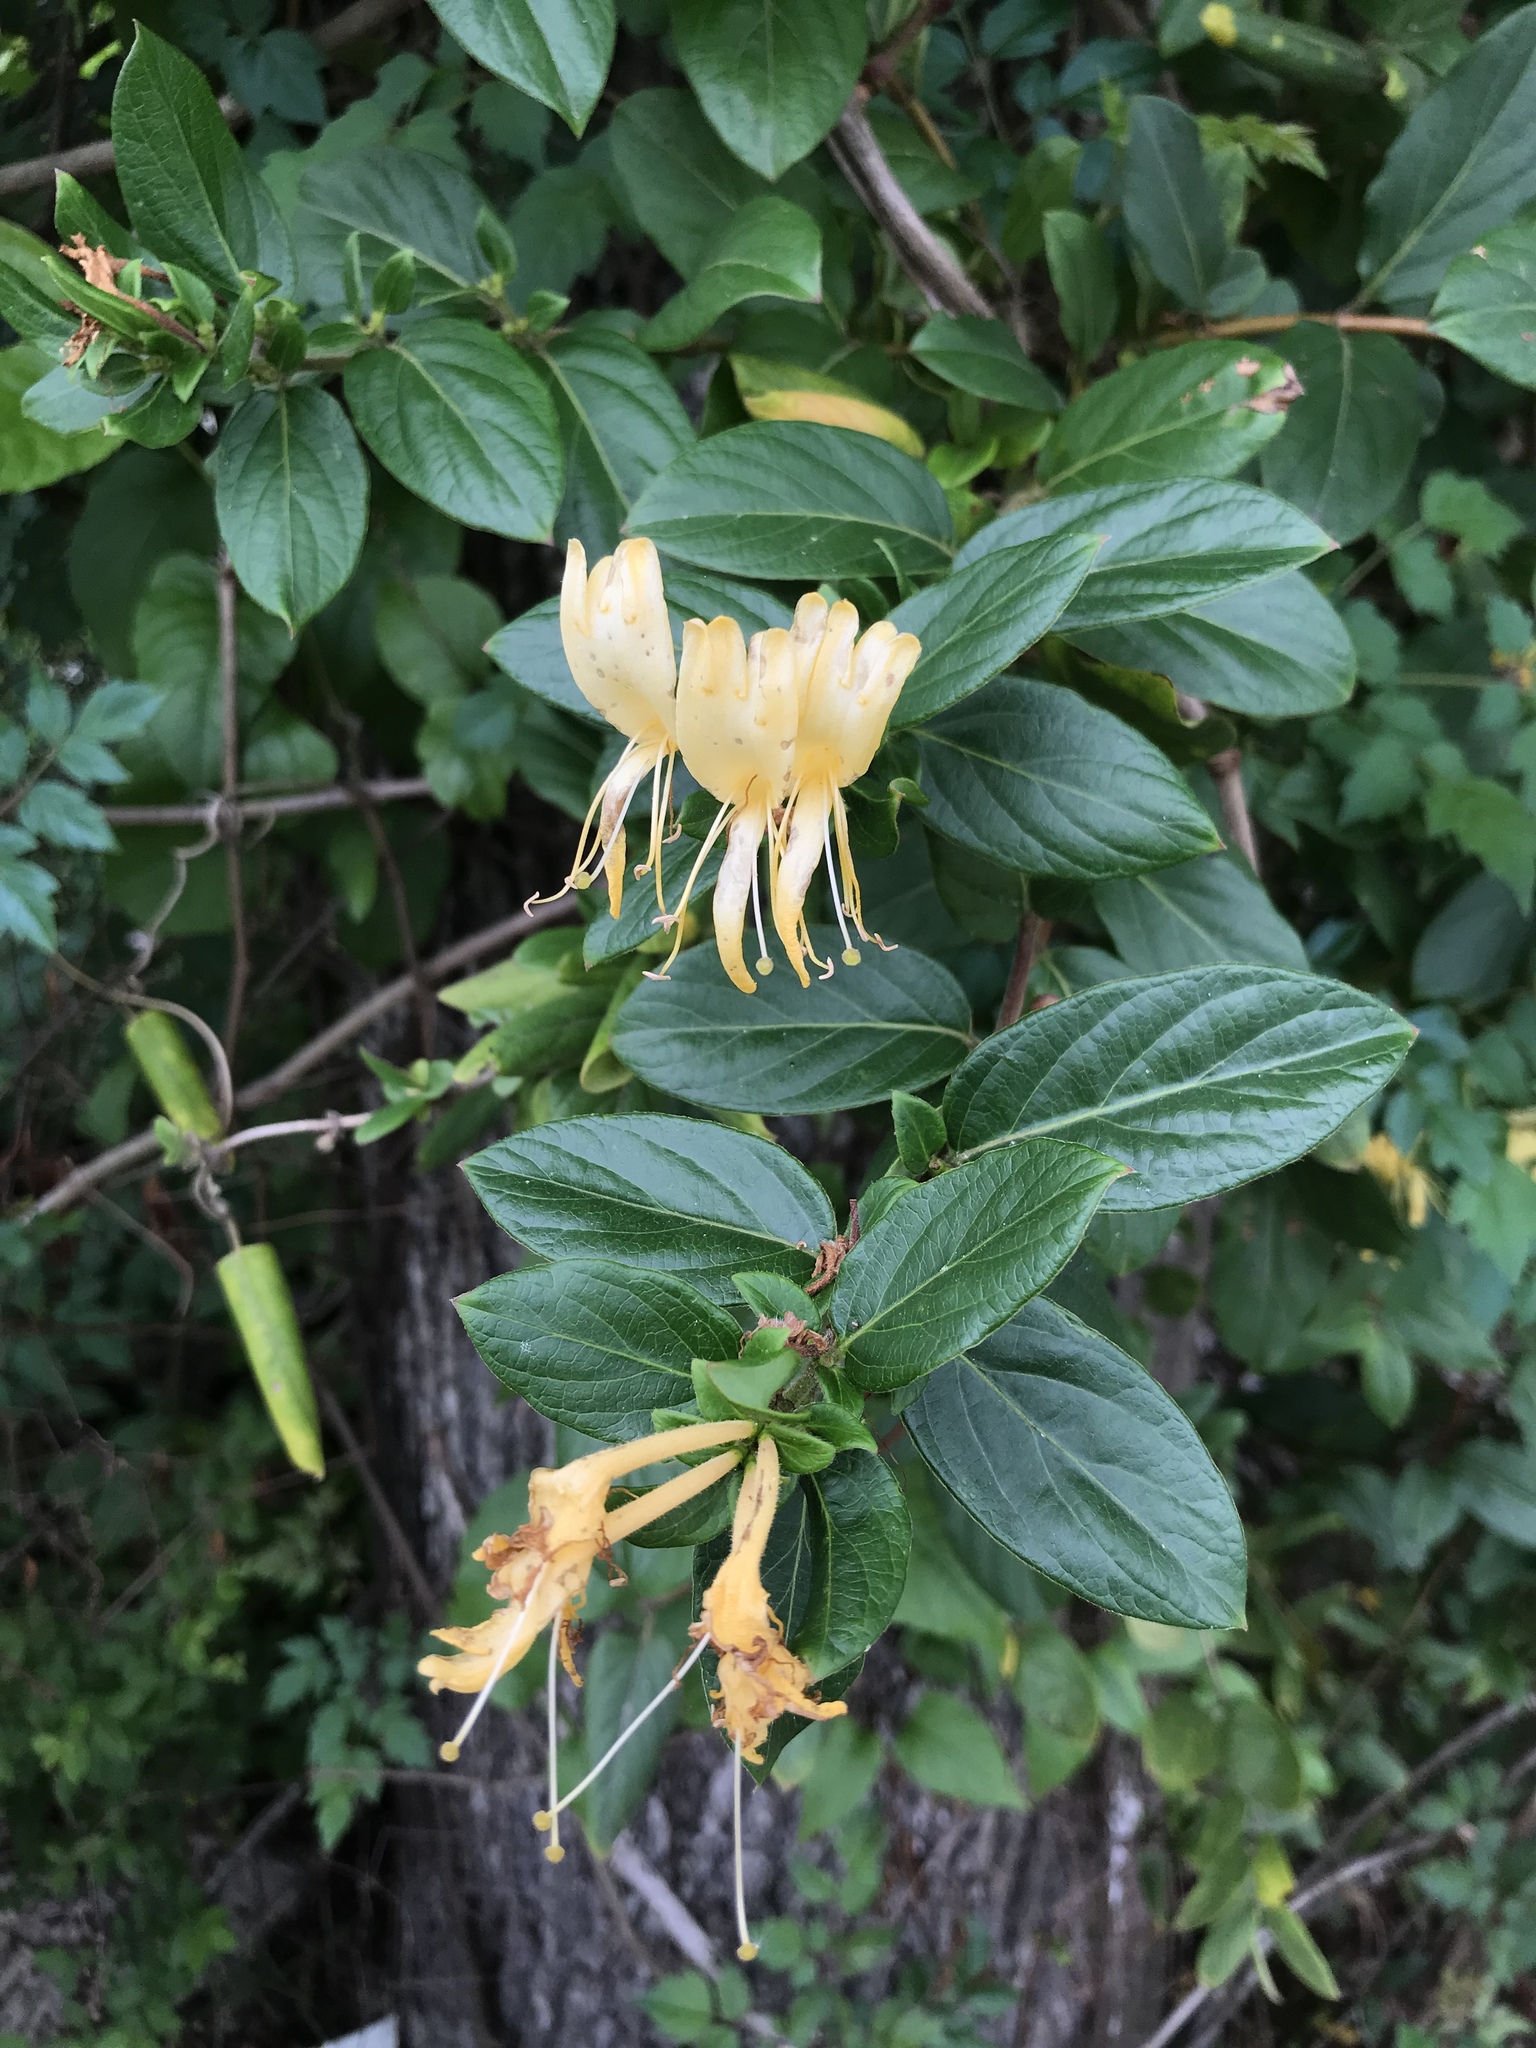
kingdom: Plantae
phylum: Tracheophyta
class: Magnoliopsida
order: Dipsacales
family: Caprifoliaceae
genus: Lonicera
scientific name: Lonicera japonica
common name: Japanese honeysuckle
